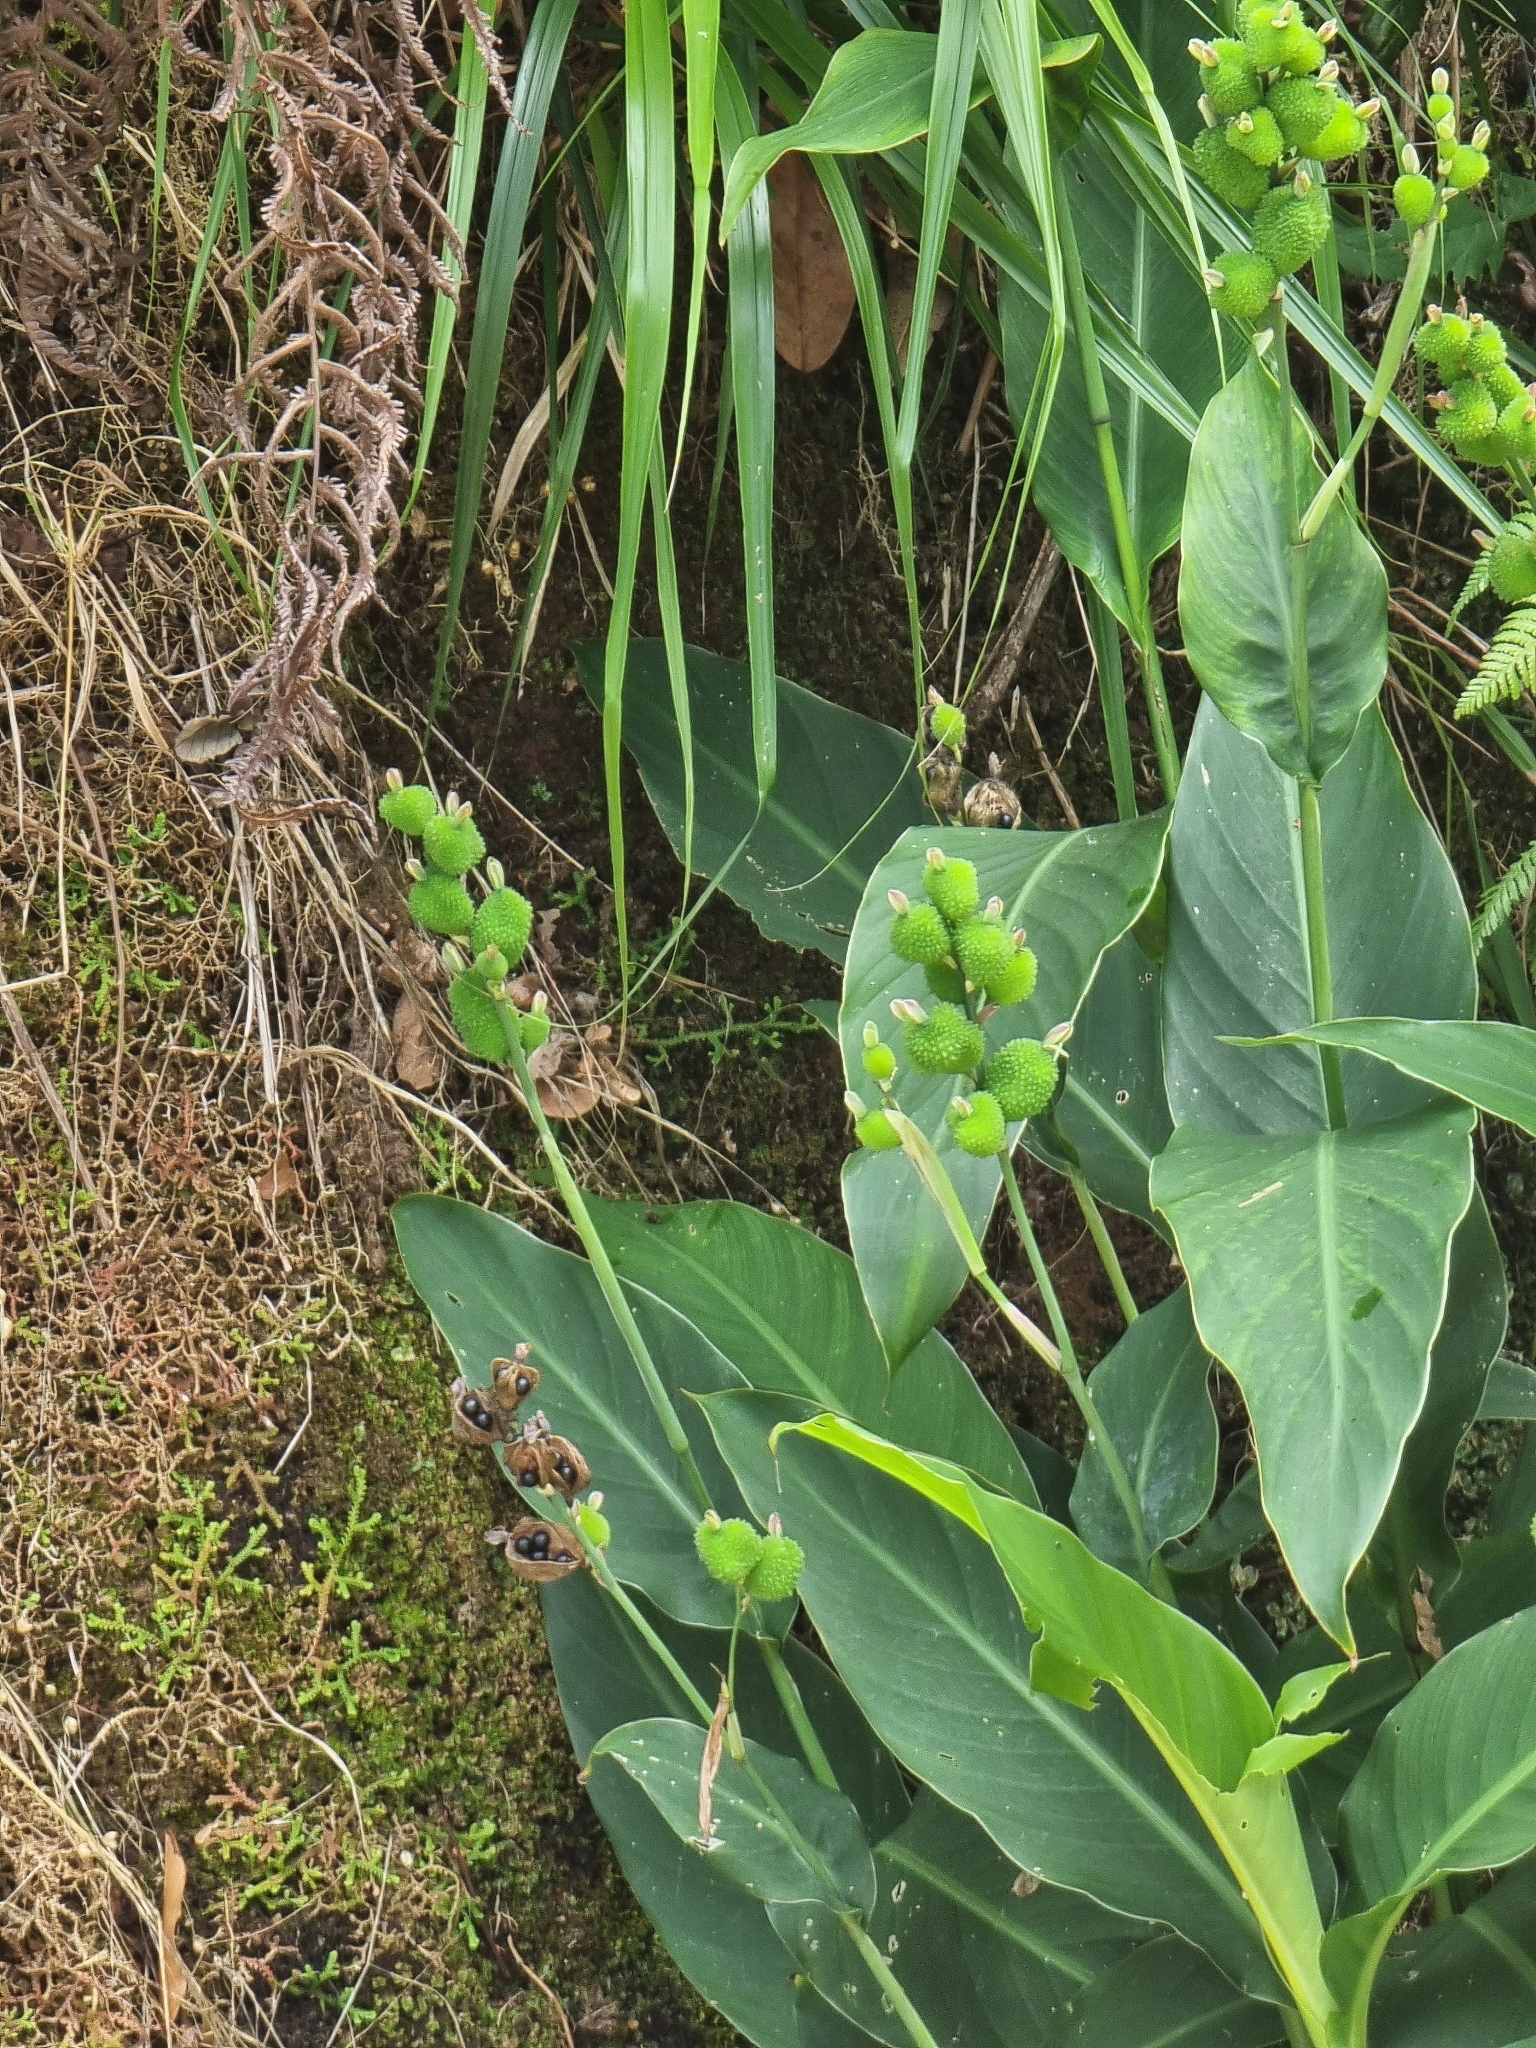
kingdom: Plantae
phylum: Tracheophyta
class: Liliopsida
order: Zingiberales
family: Cannaceae
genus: Canna
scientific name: Canna indica
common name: Indian shot
